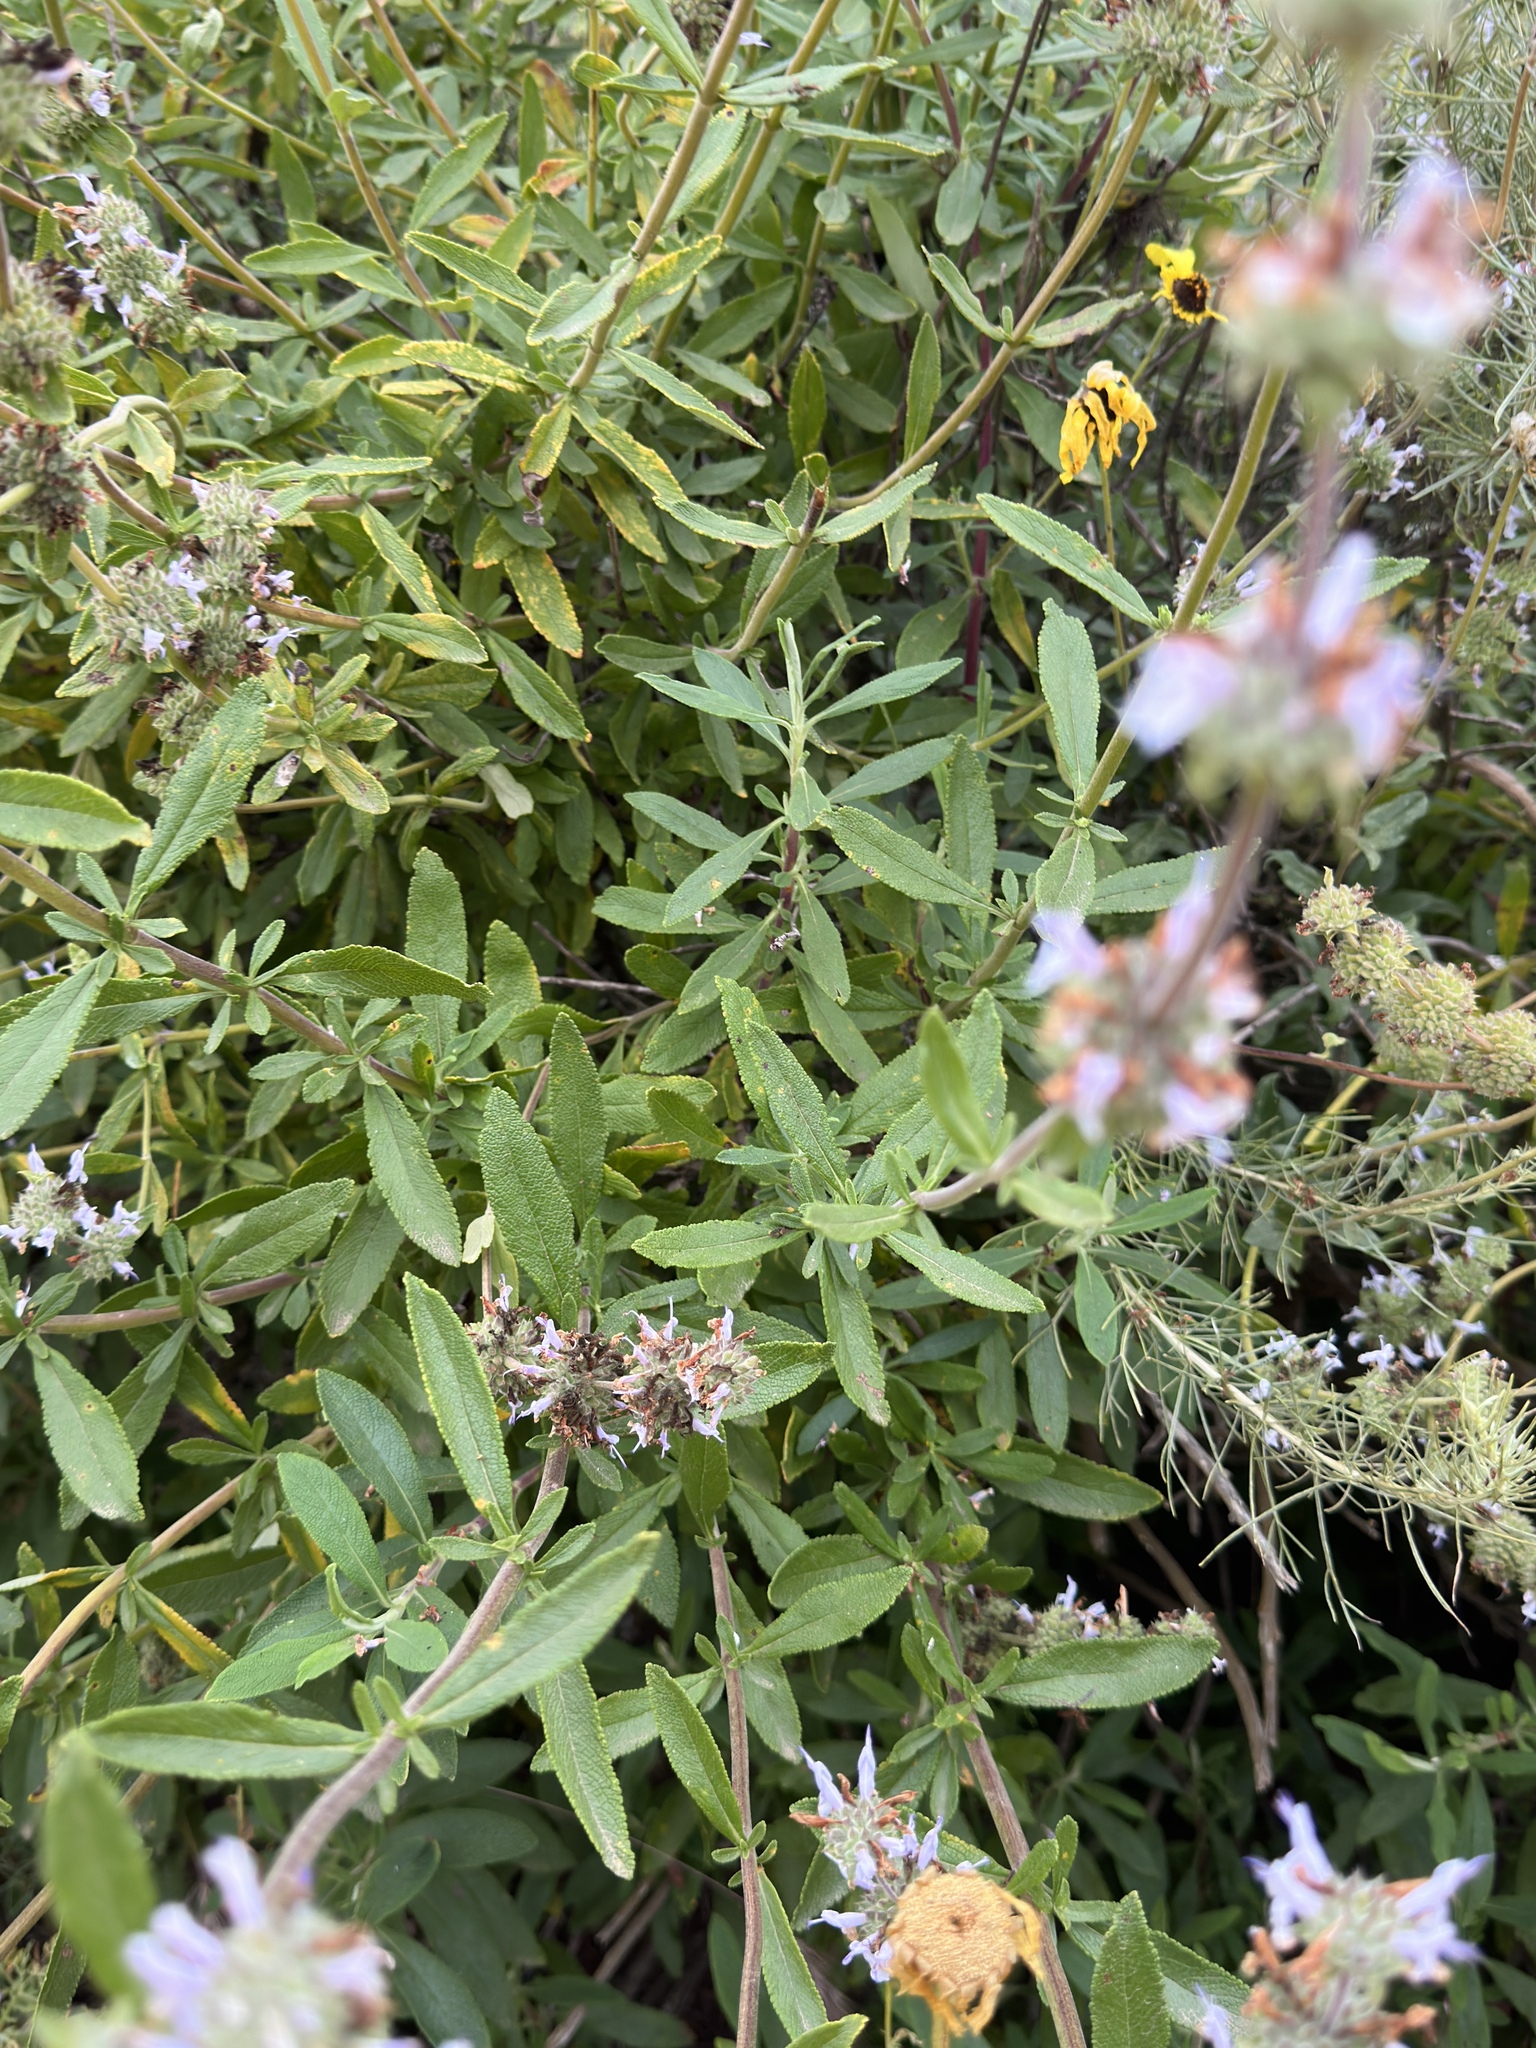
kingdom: Plantae
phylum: Tracheophyta
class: Magnoliopsida
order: Lamiales
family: Lamiaceae
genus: Salvia
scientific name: Salvia mellifera
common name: Black sage
